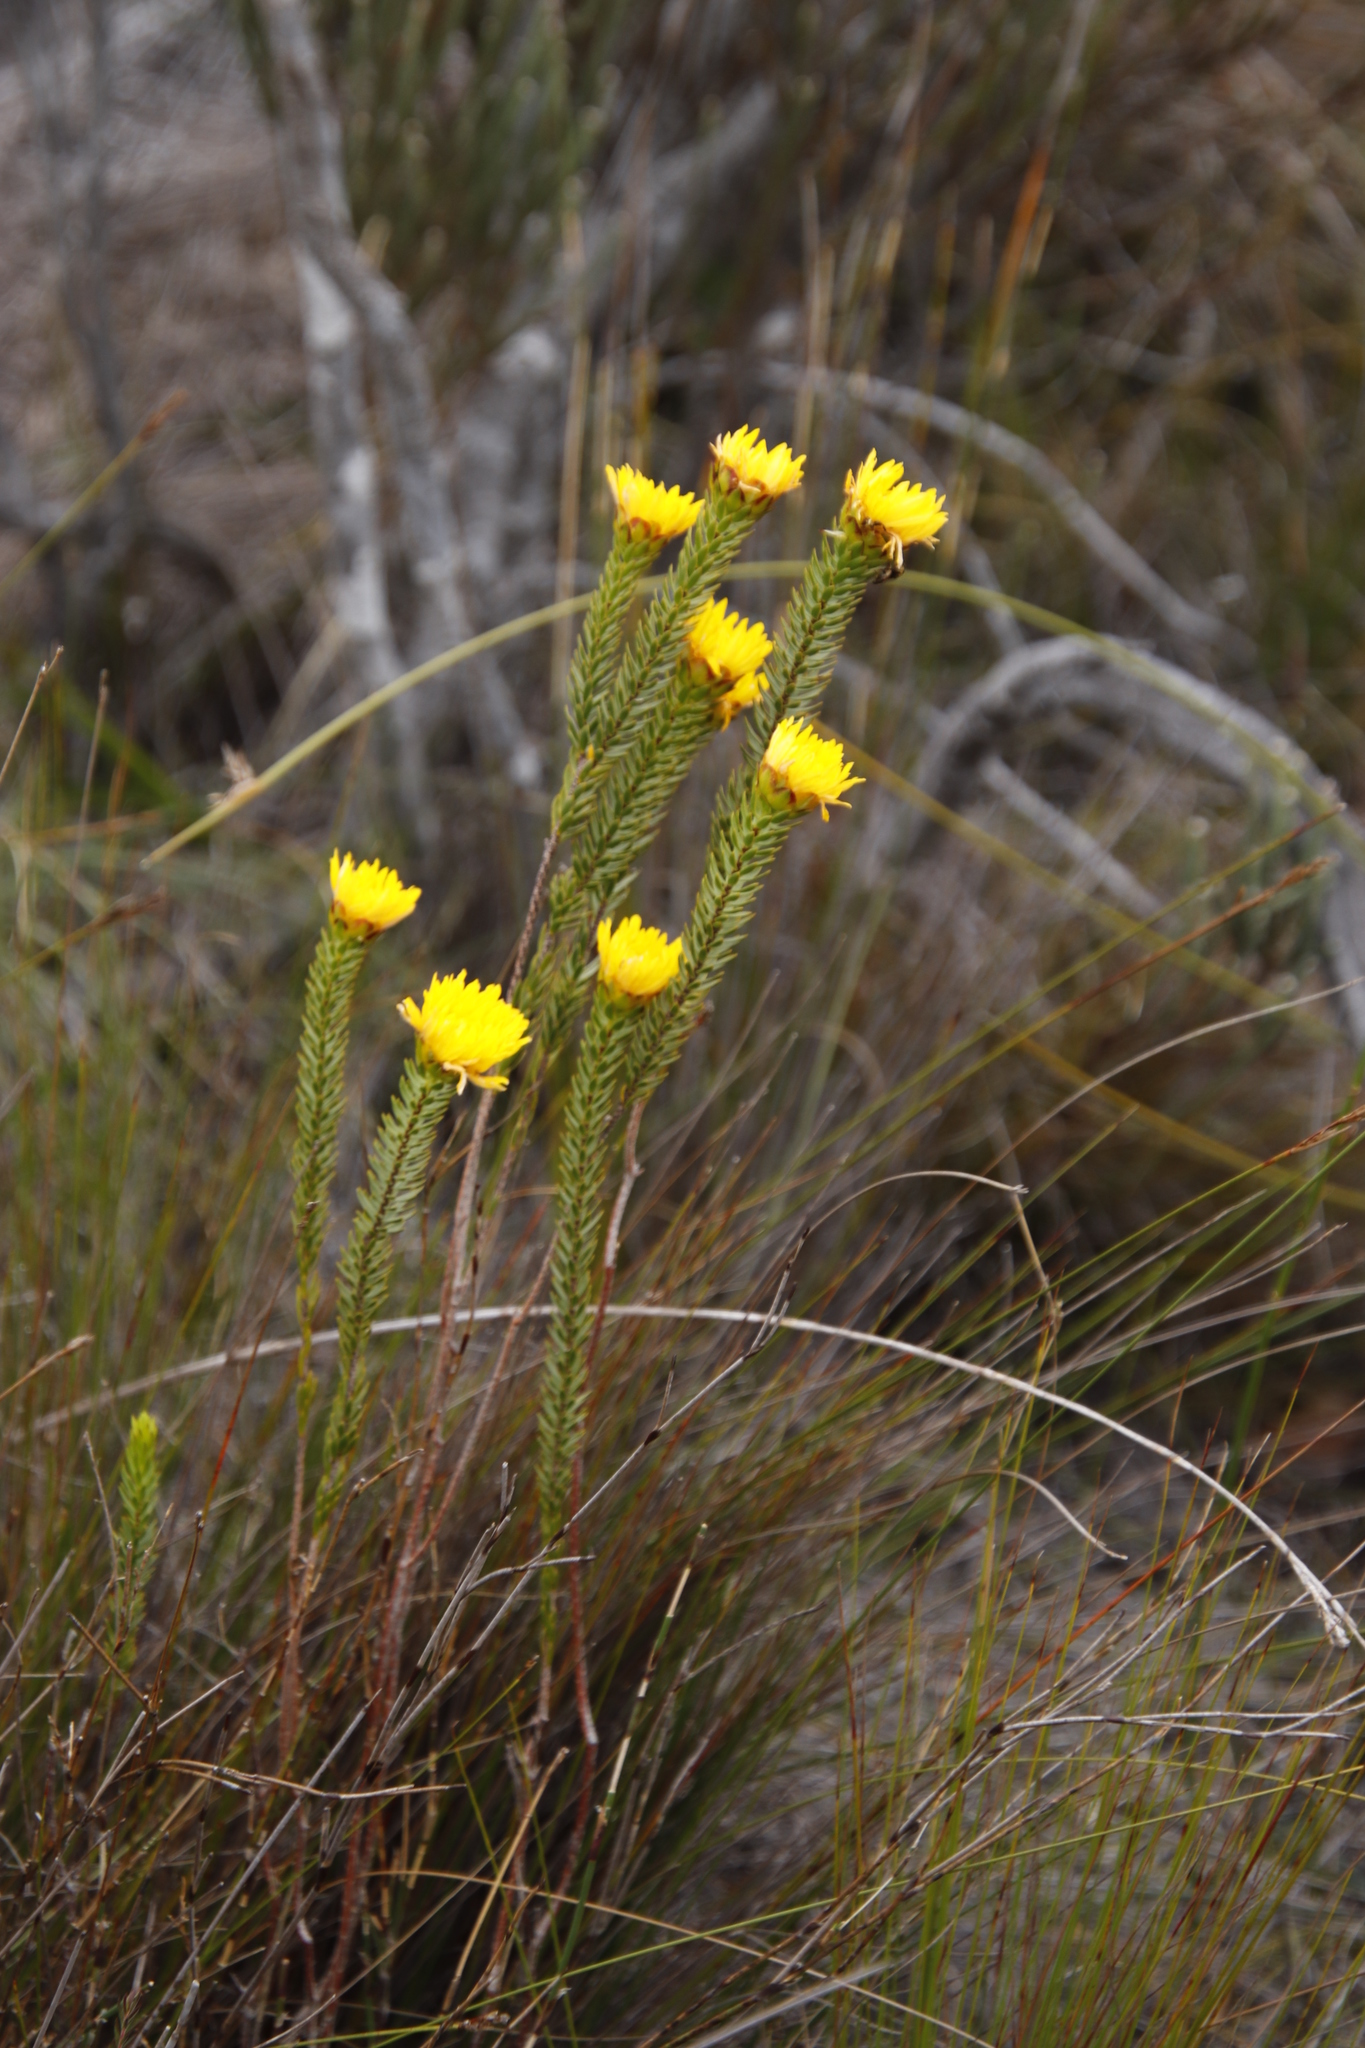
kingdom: Plantae
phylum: Tracheophyta
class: Magnoliopsida
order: Malvales
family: Thymelaeaceae
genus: Lachnaea
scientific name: Lachnaea aurea
